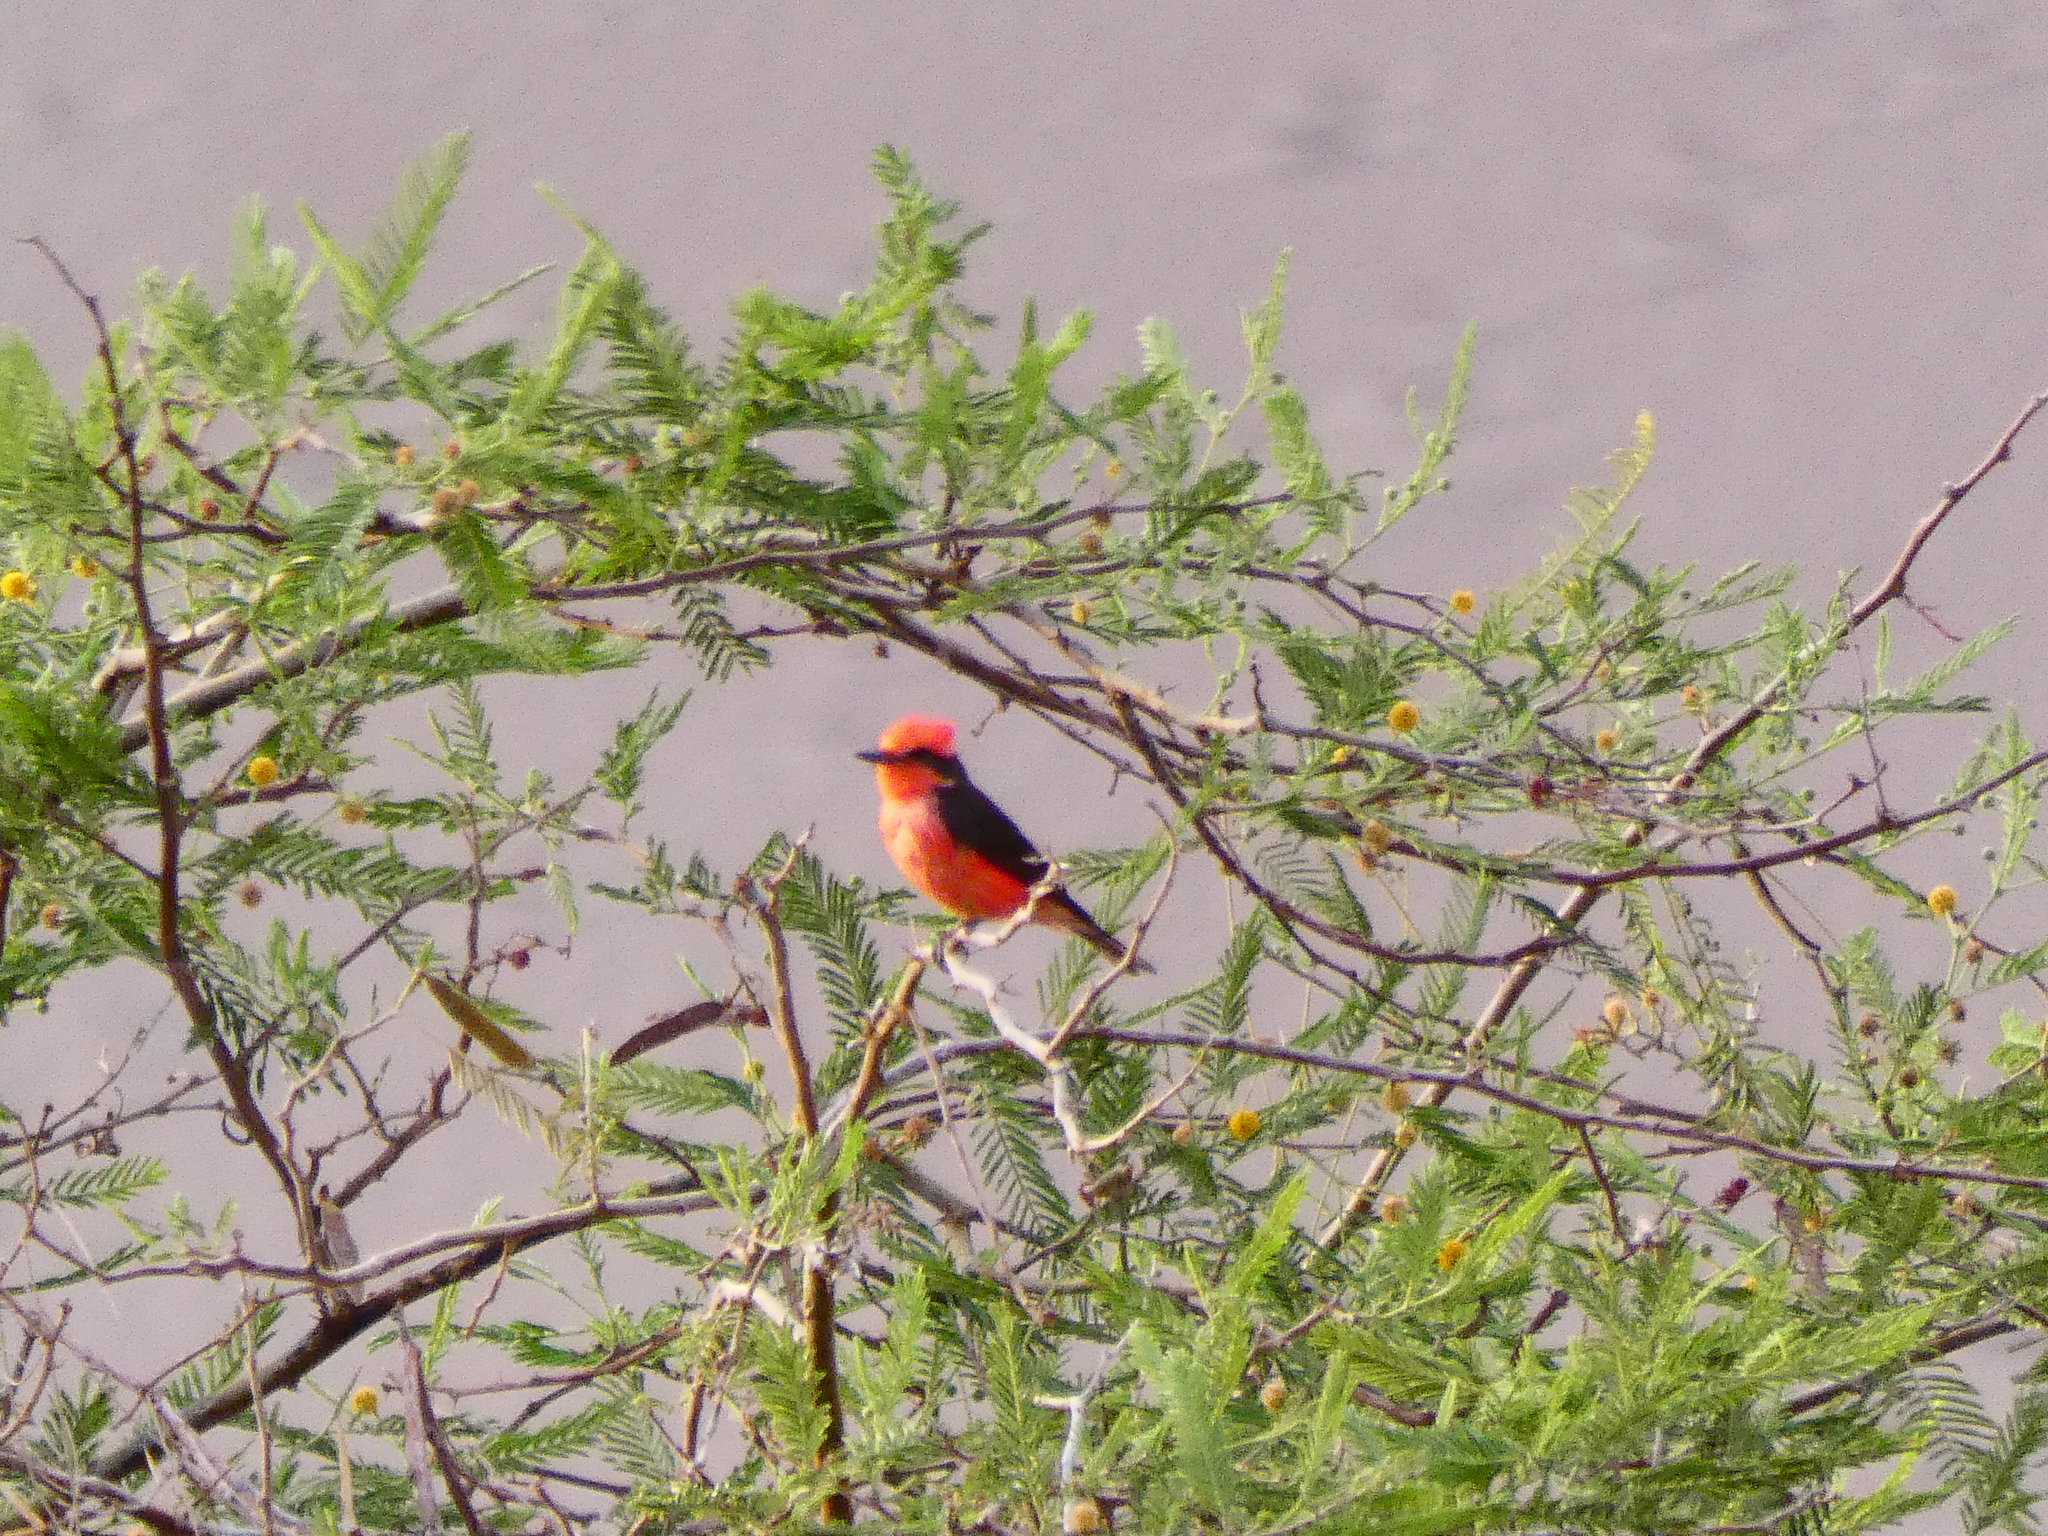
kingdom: Animalia
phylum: Chordata
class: Aves
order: Passeriformes
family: Tyrannidae
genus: Pyrocephalus
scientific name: Pyrocephalus rubinus
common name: Vermilion flycatcher
